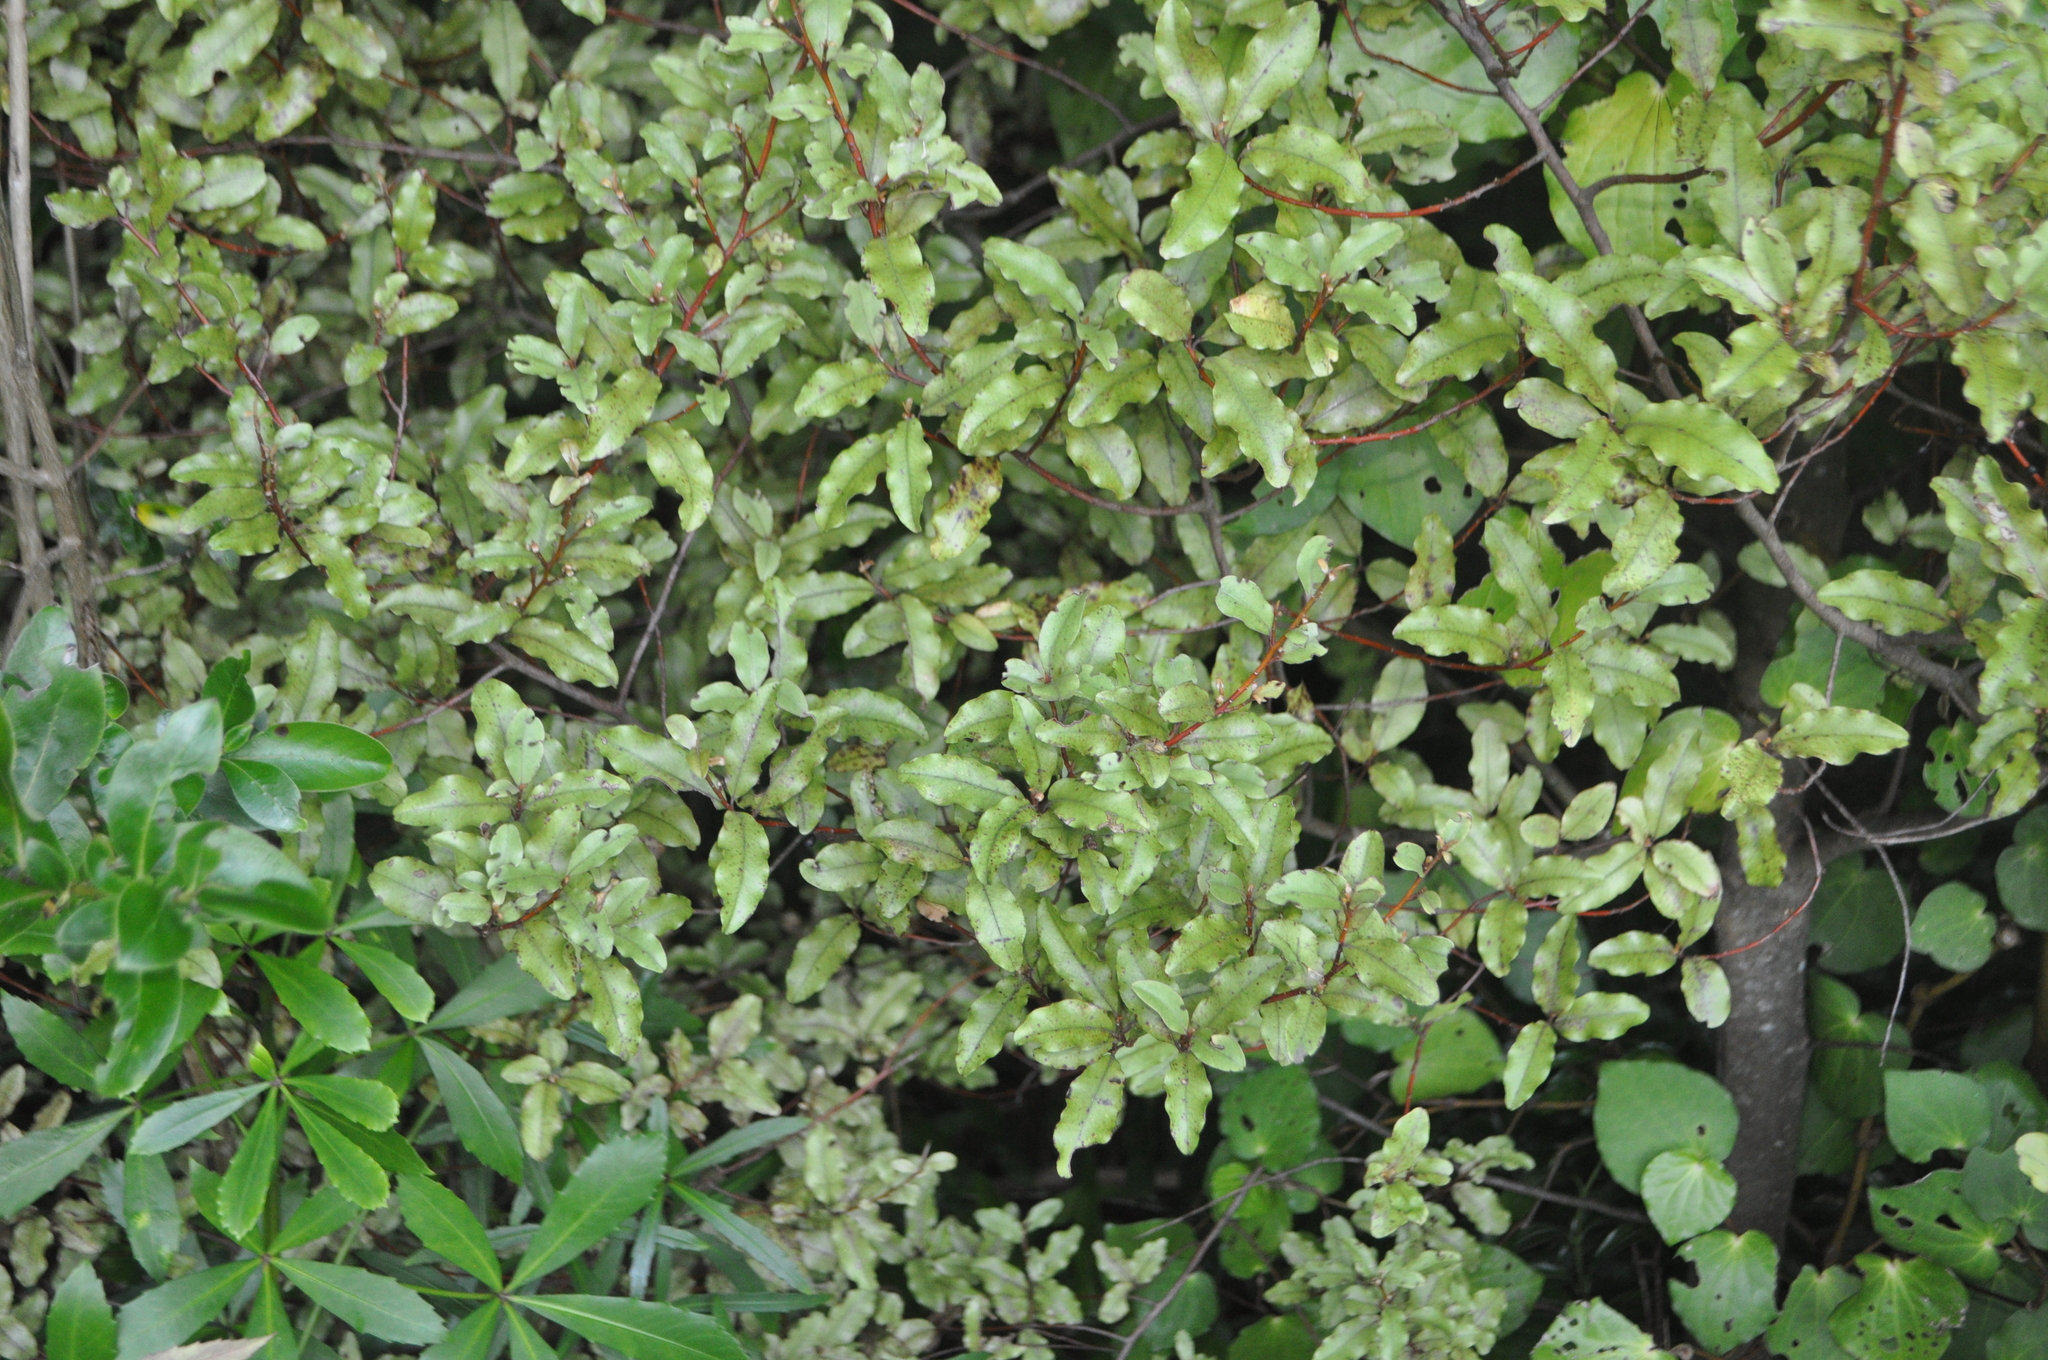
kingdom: Plantae
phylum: Tracheophyta
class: Magnoliopsida
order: Ericales
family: Primulaceae
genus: Myrsine
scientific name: Myrsine australis
